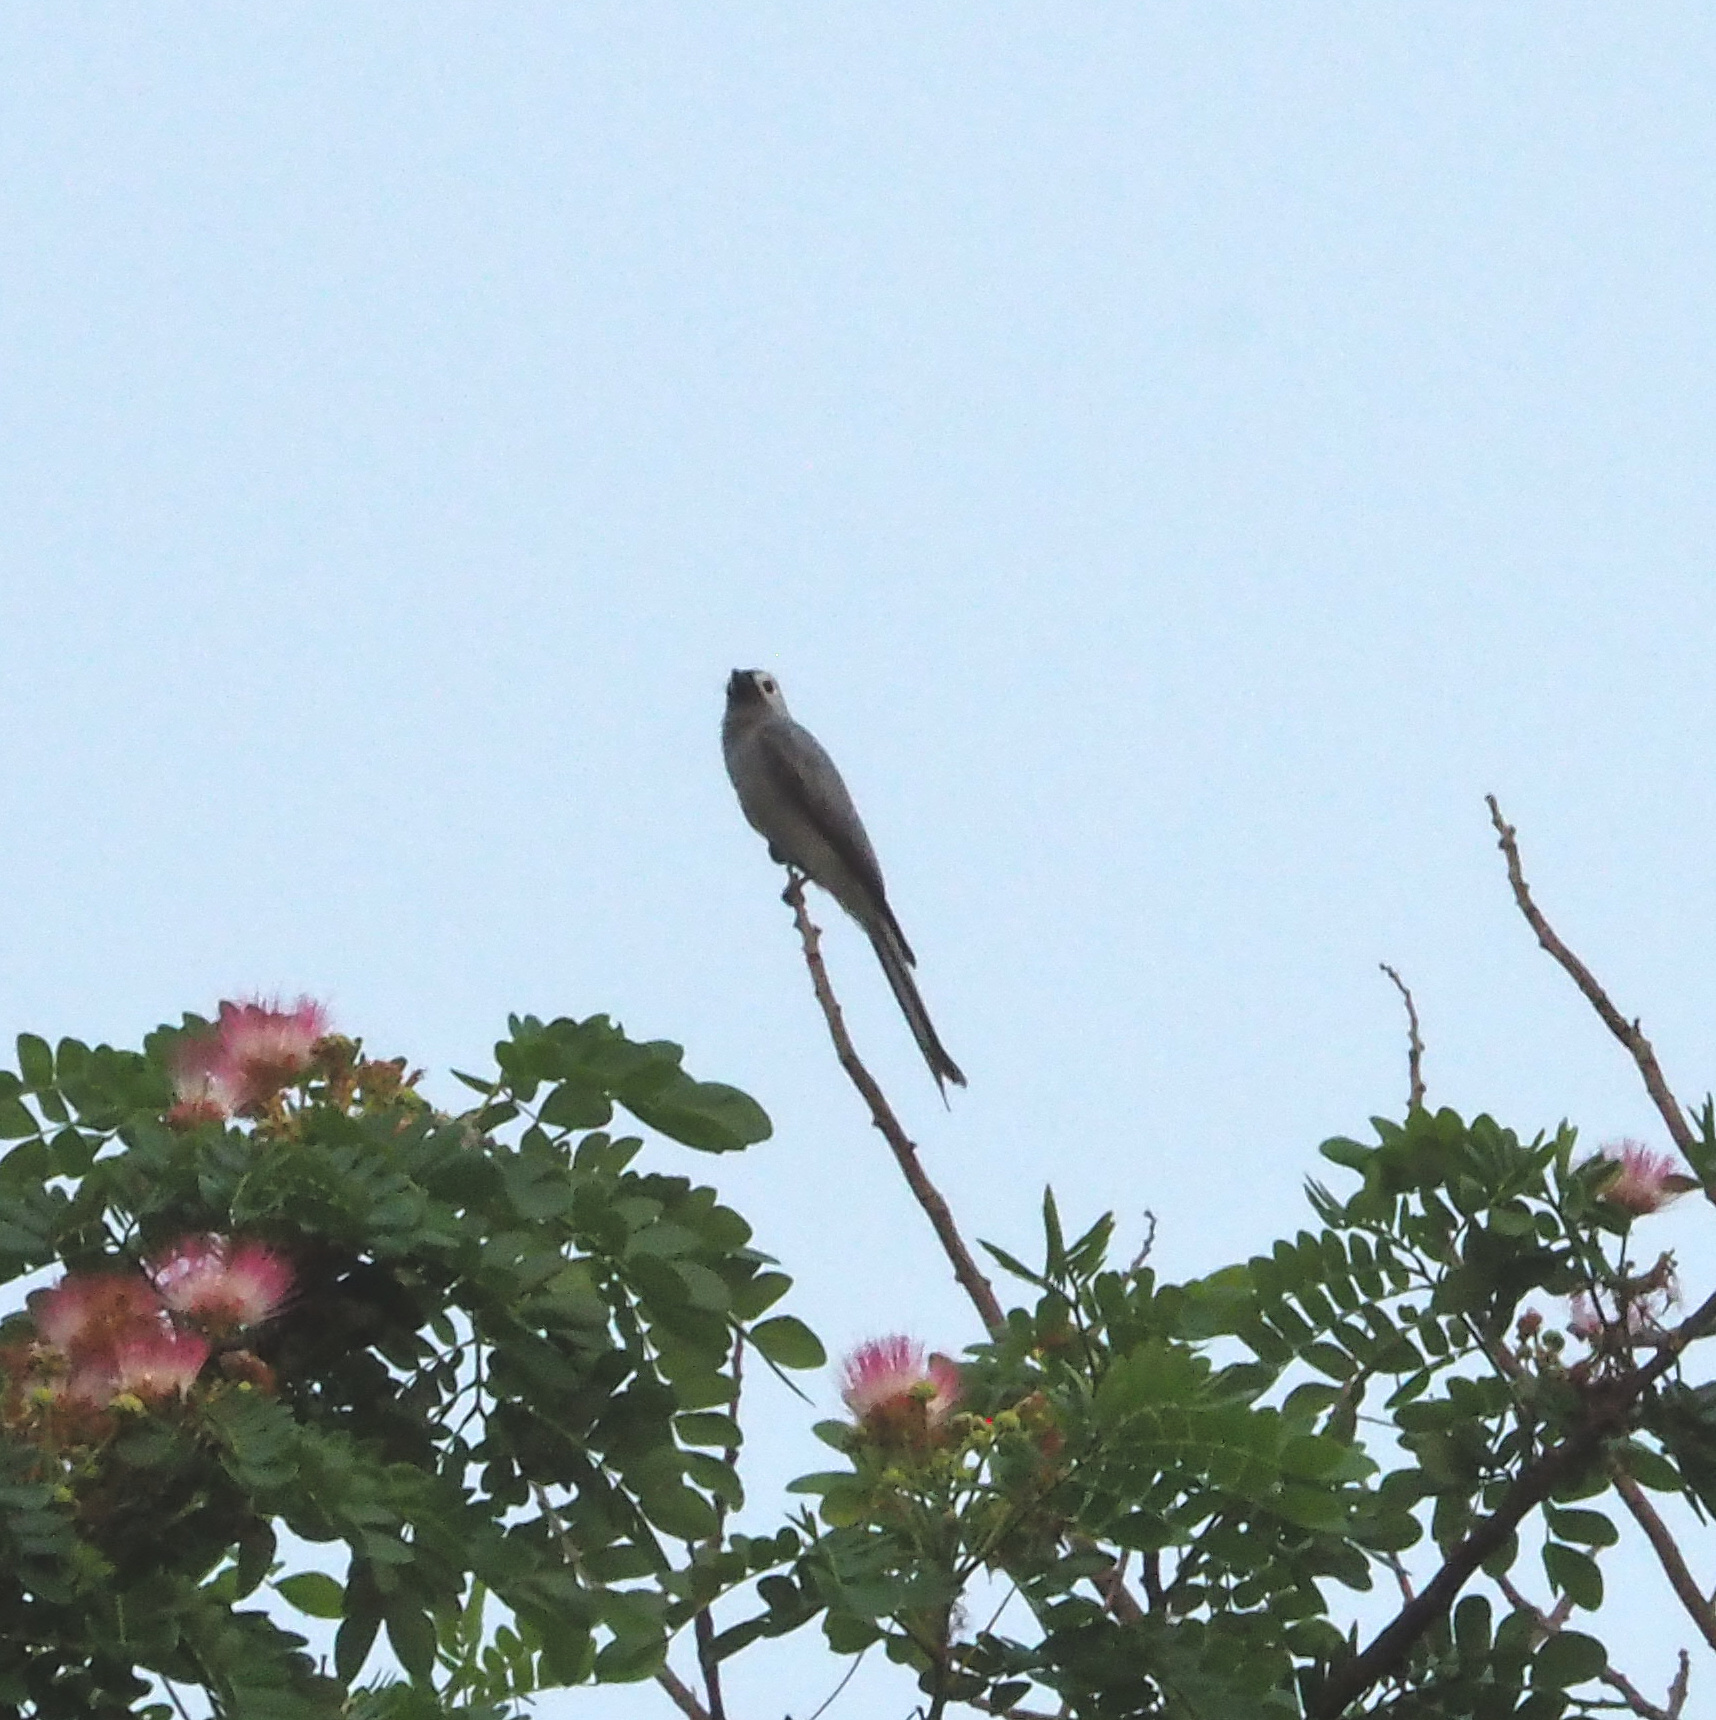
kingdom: Animalia
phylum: Chordata
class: Aves
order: Passeriformes
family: Dicruridae
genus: Dicrurus
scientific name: Dicrurus leucophaeus
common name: Ashy drongo
